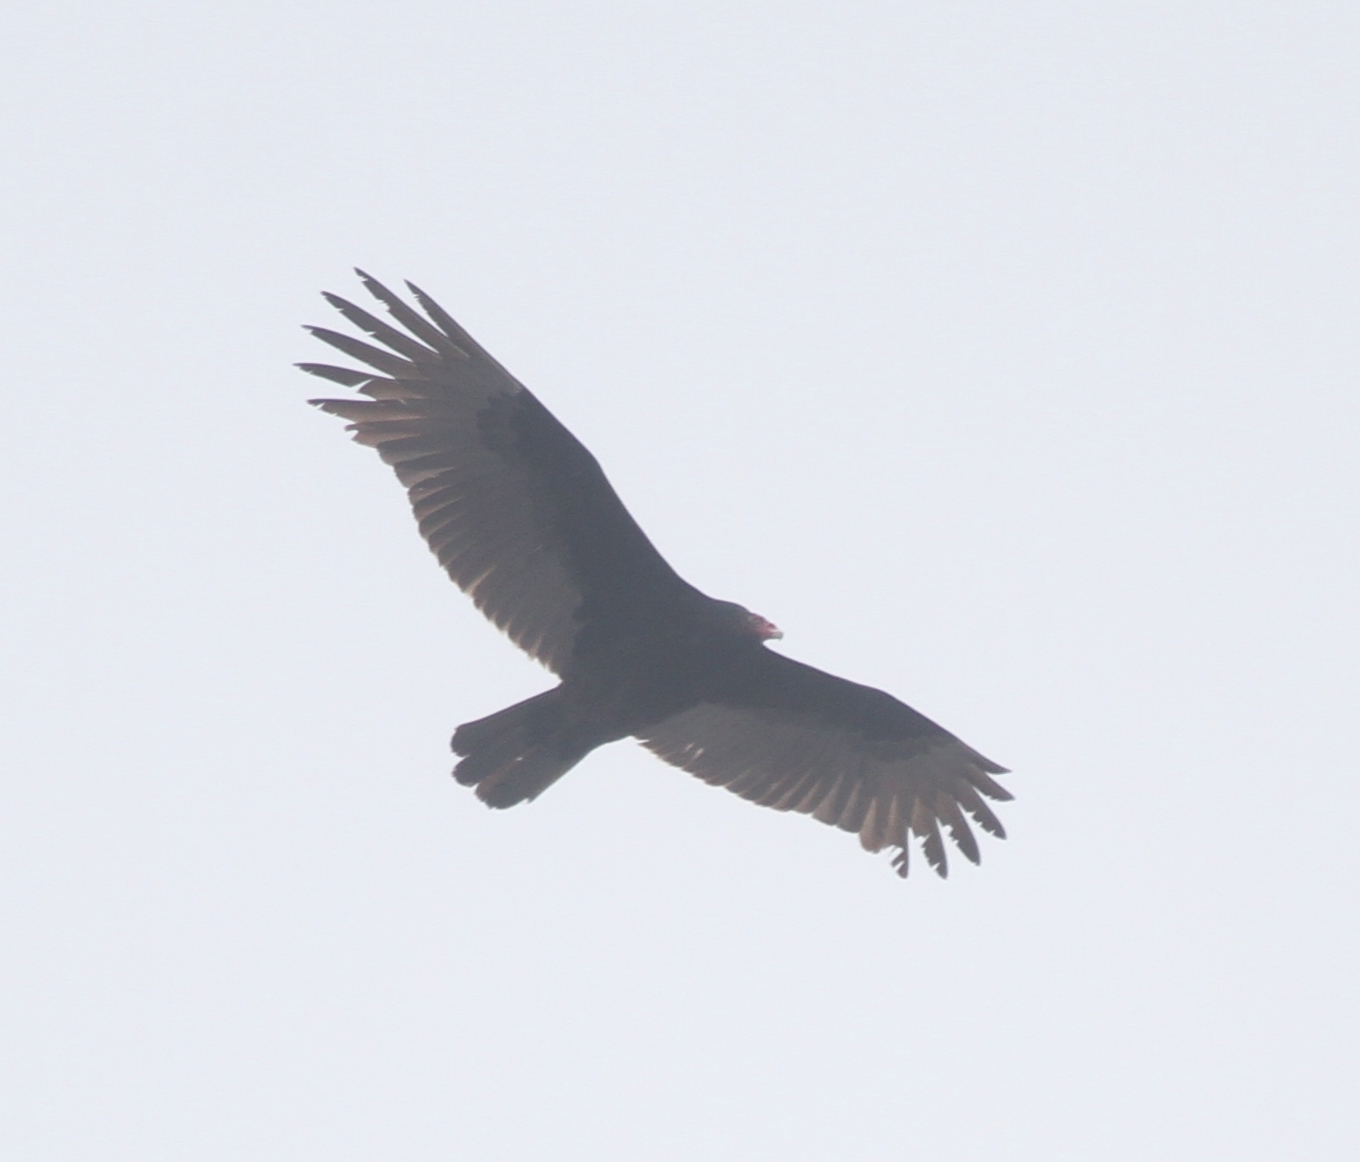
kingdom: Animalia
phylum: Chordata
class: Aves
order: Accipitriformes
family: Cathartidae
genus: Cathartes
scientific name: Cathartes aura
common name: Turkey vulture
